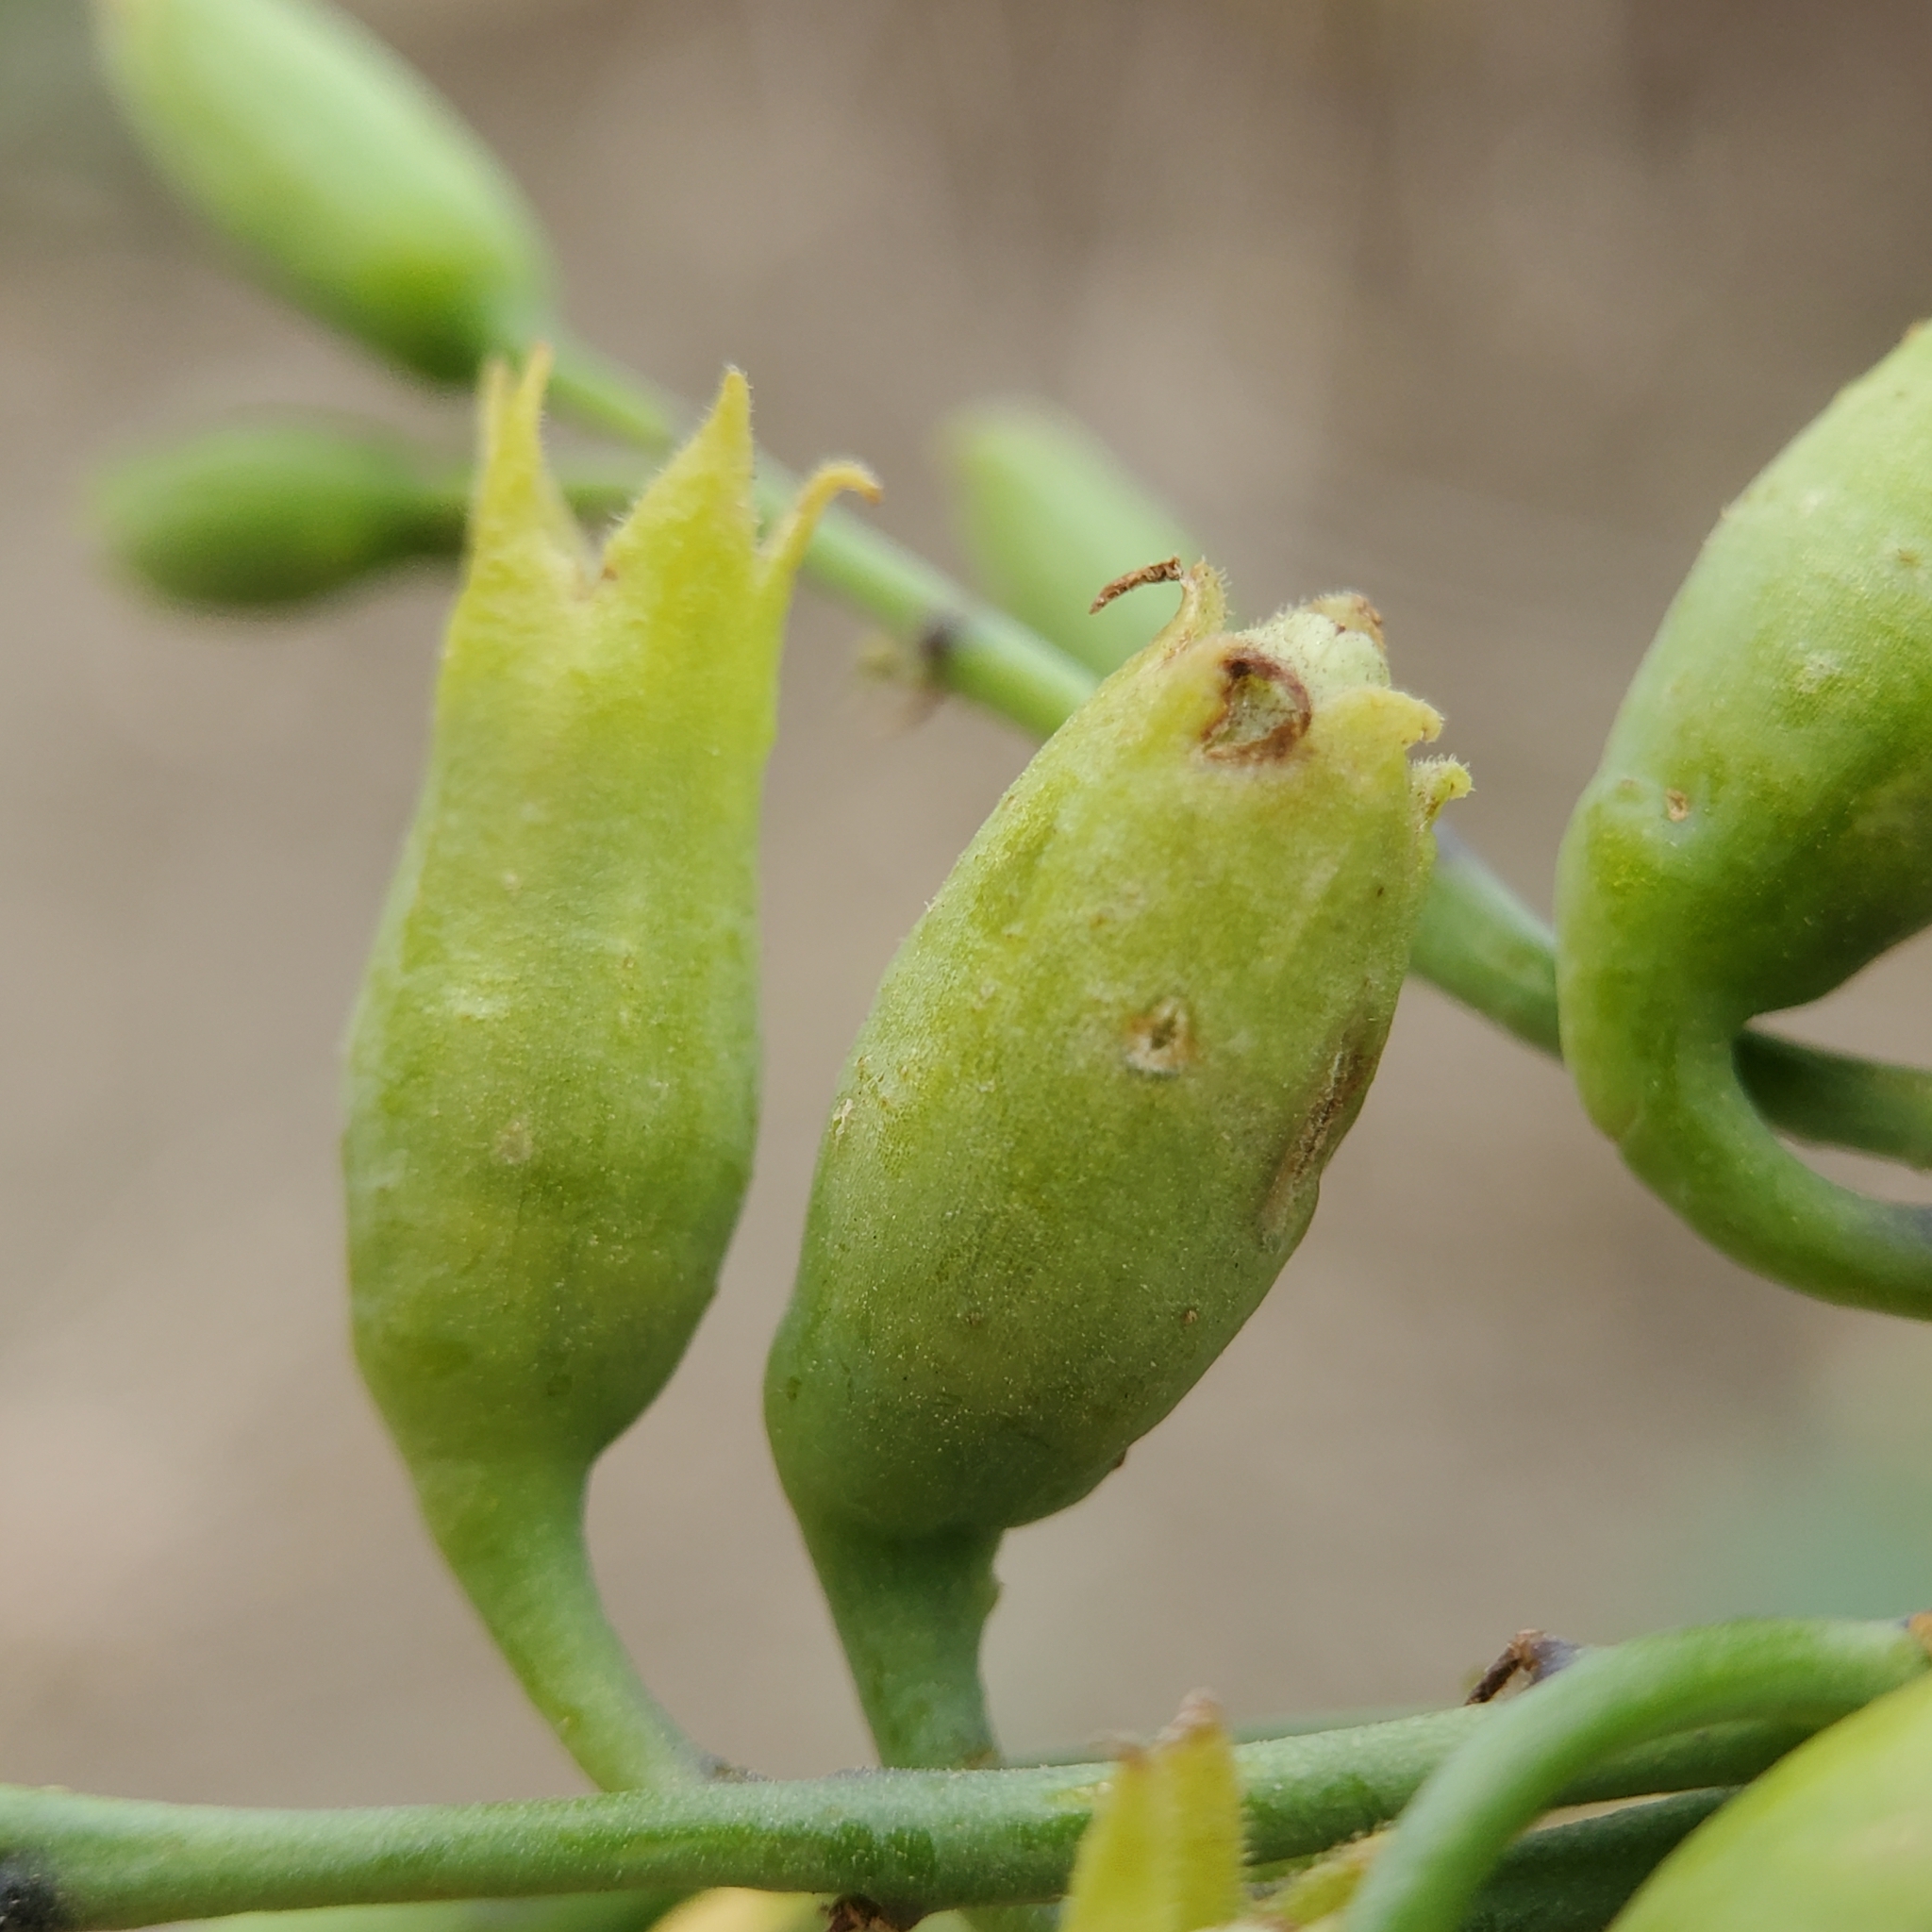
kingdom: Plantae
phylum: Tracheophyta
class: Magnoliopsida
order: Solanales
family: Solanaceae
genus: Nicotiana
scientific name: Nicotiana glauca
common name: Tree tobacco
